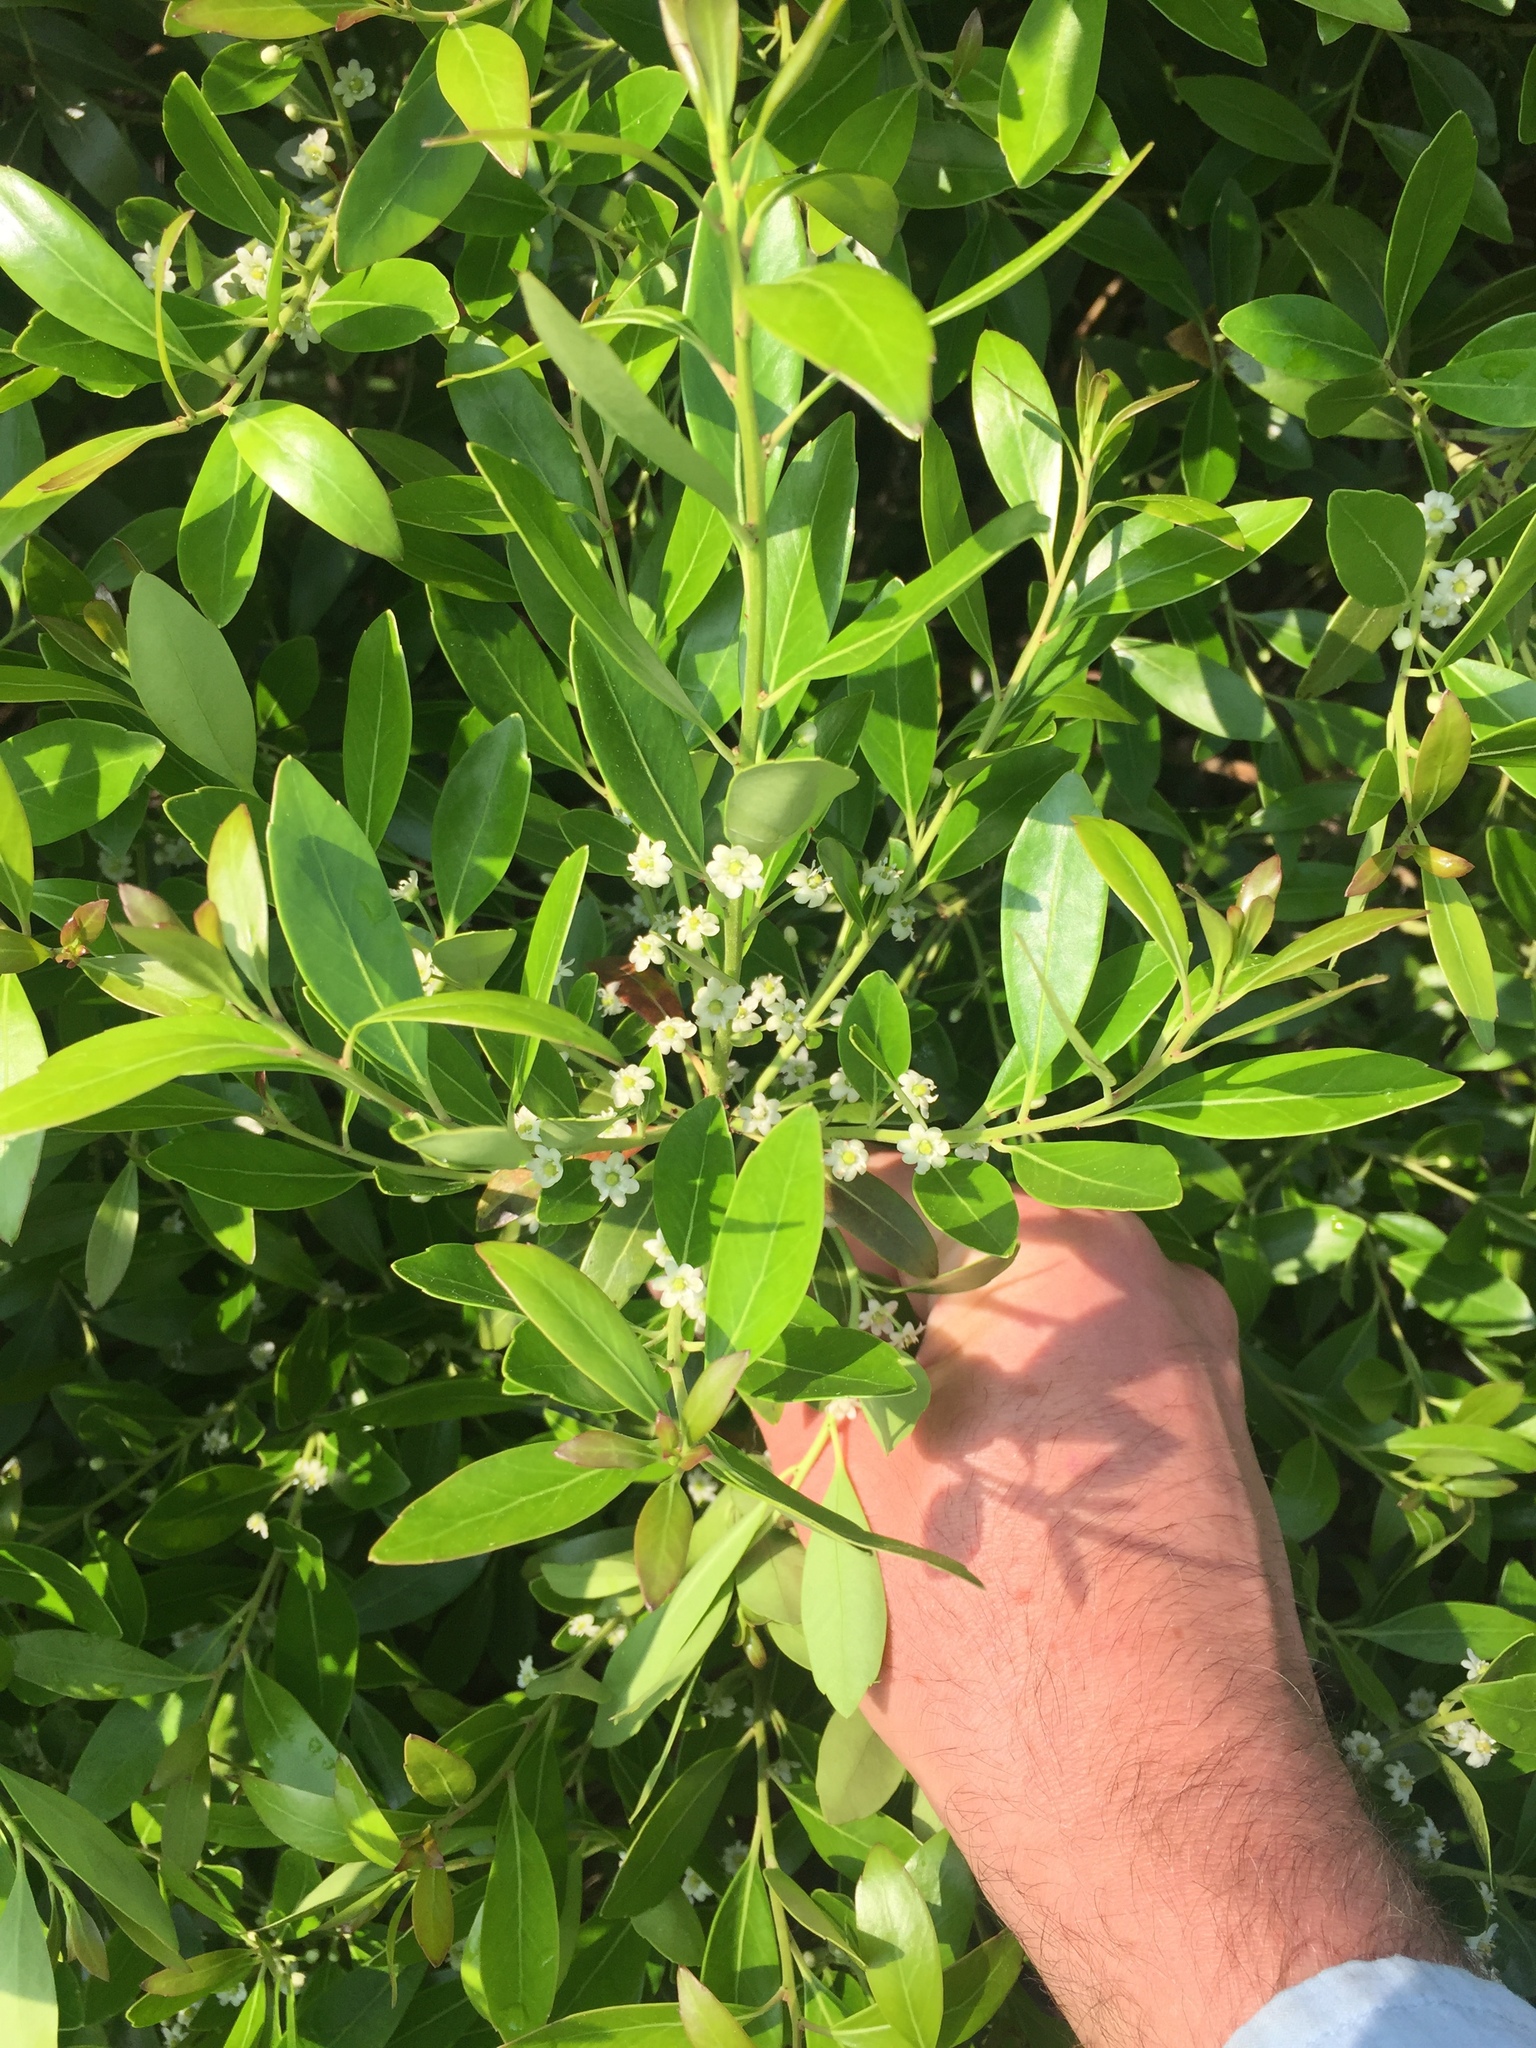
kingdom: Plantae
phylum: Tracheophyta
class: Magnoliopsida
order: Aquifoliales
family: Aquifoliaceae
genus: Ilex
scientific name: Ilex glabra
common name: Bitter gallberry
